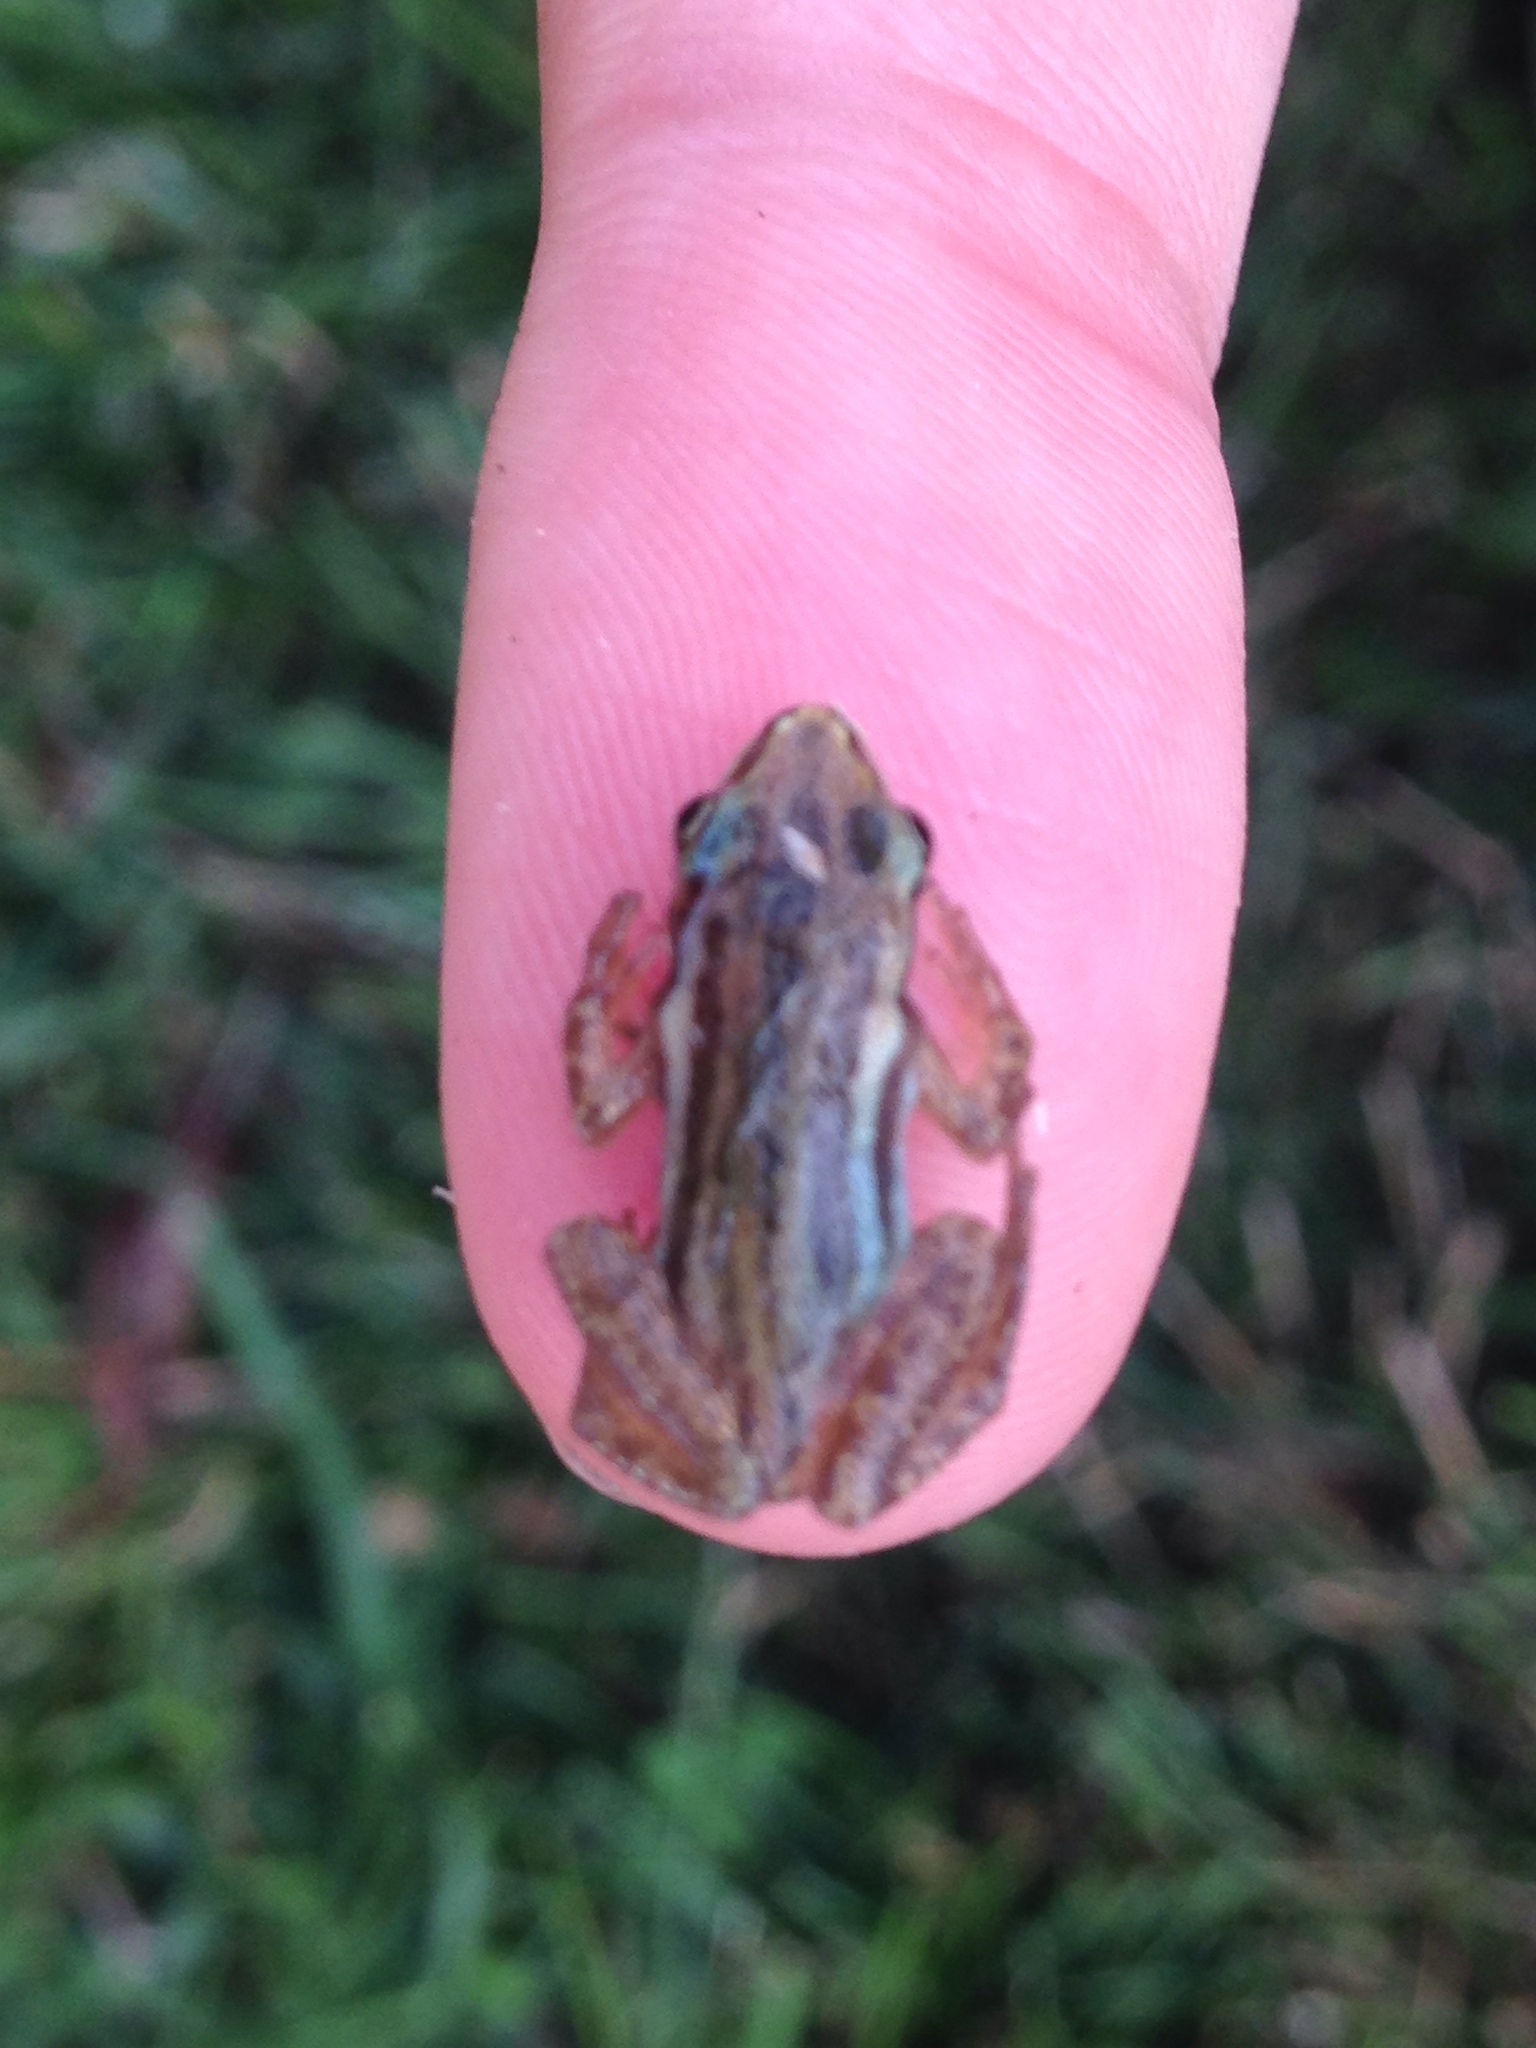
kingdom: Animalia
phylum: Chordata
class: Amphibia
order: Anura
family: Hylidae
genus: Pseudacris
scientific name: Pseudacris maculata
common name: Boreal chorus frog
